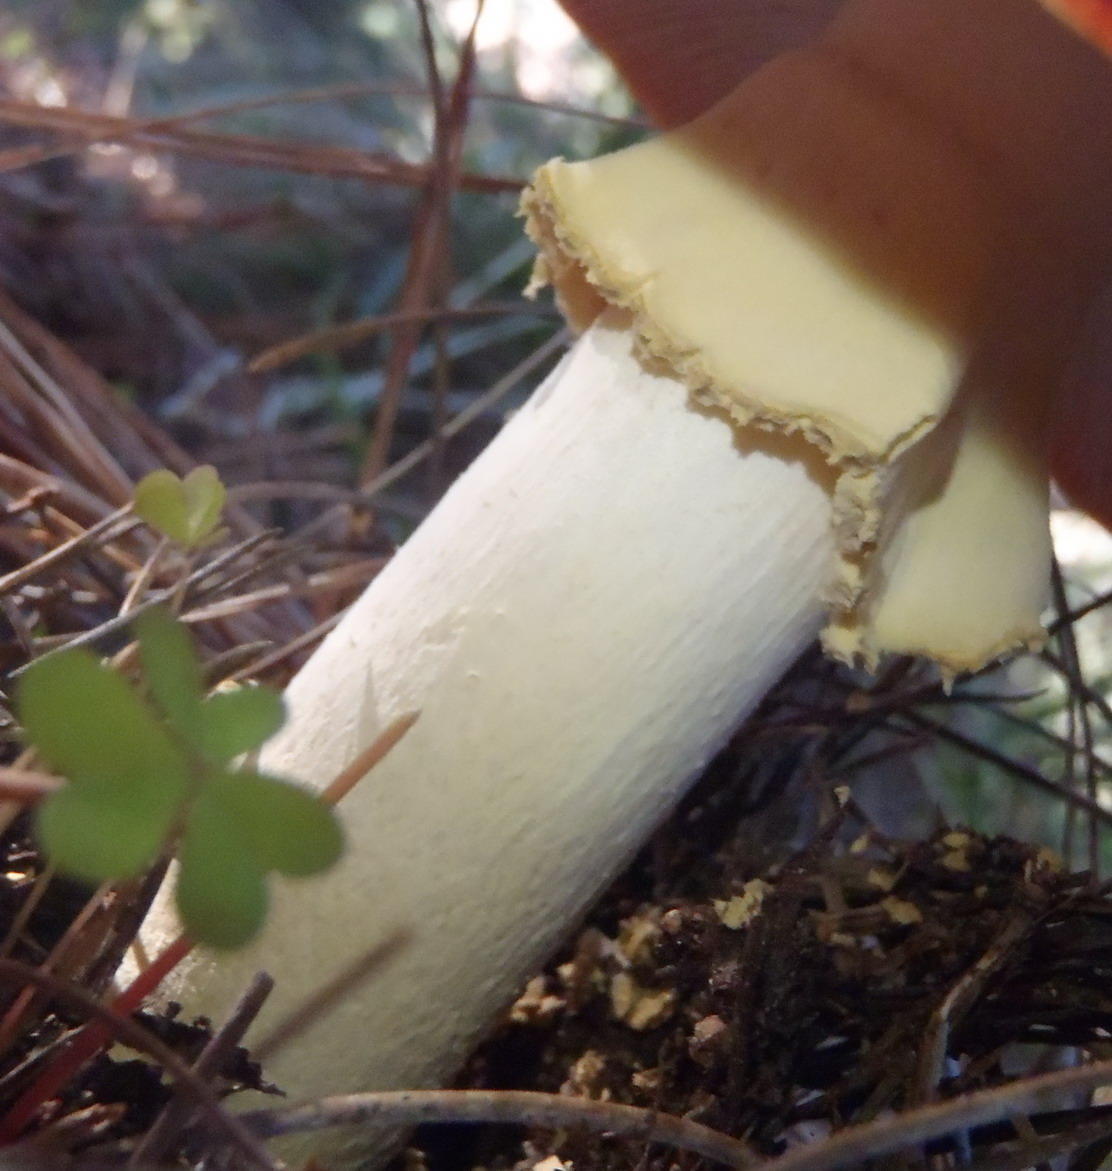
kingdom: Fungi
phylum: Basidiomycota
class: Agaricomycetes
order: Agaricales
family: Amanitaceae
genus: Amanita
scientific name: Amanita muscaria
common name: Fly agaric
